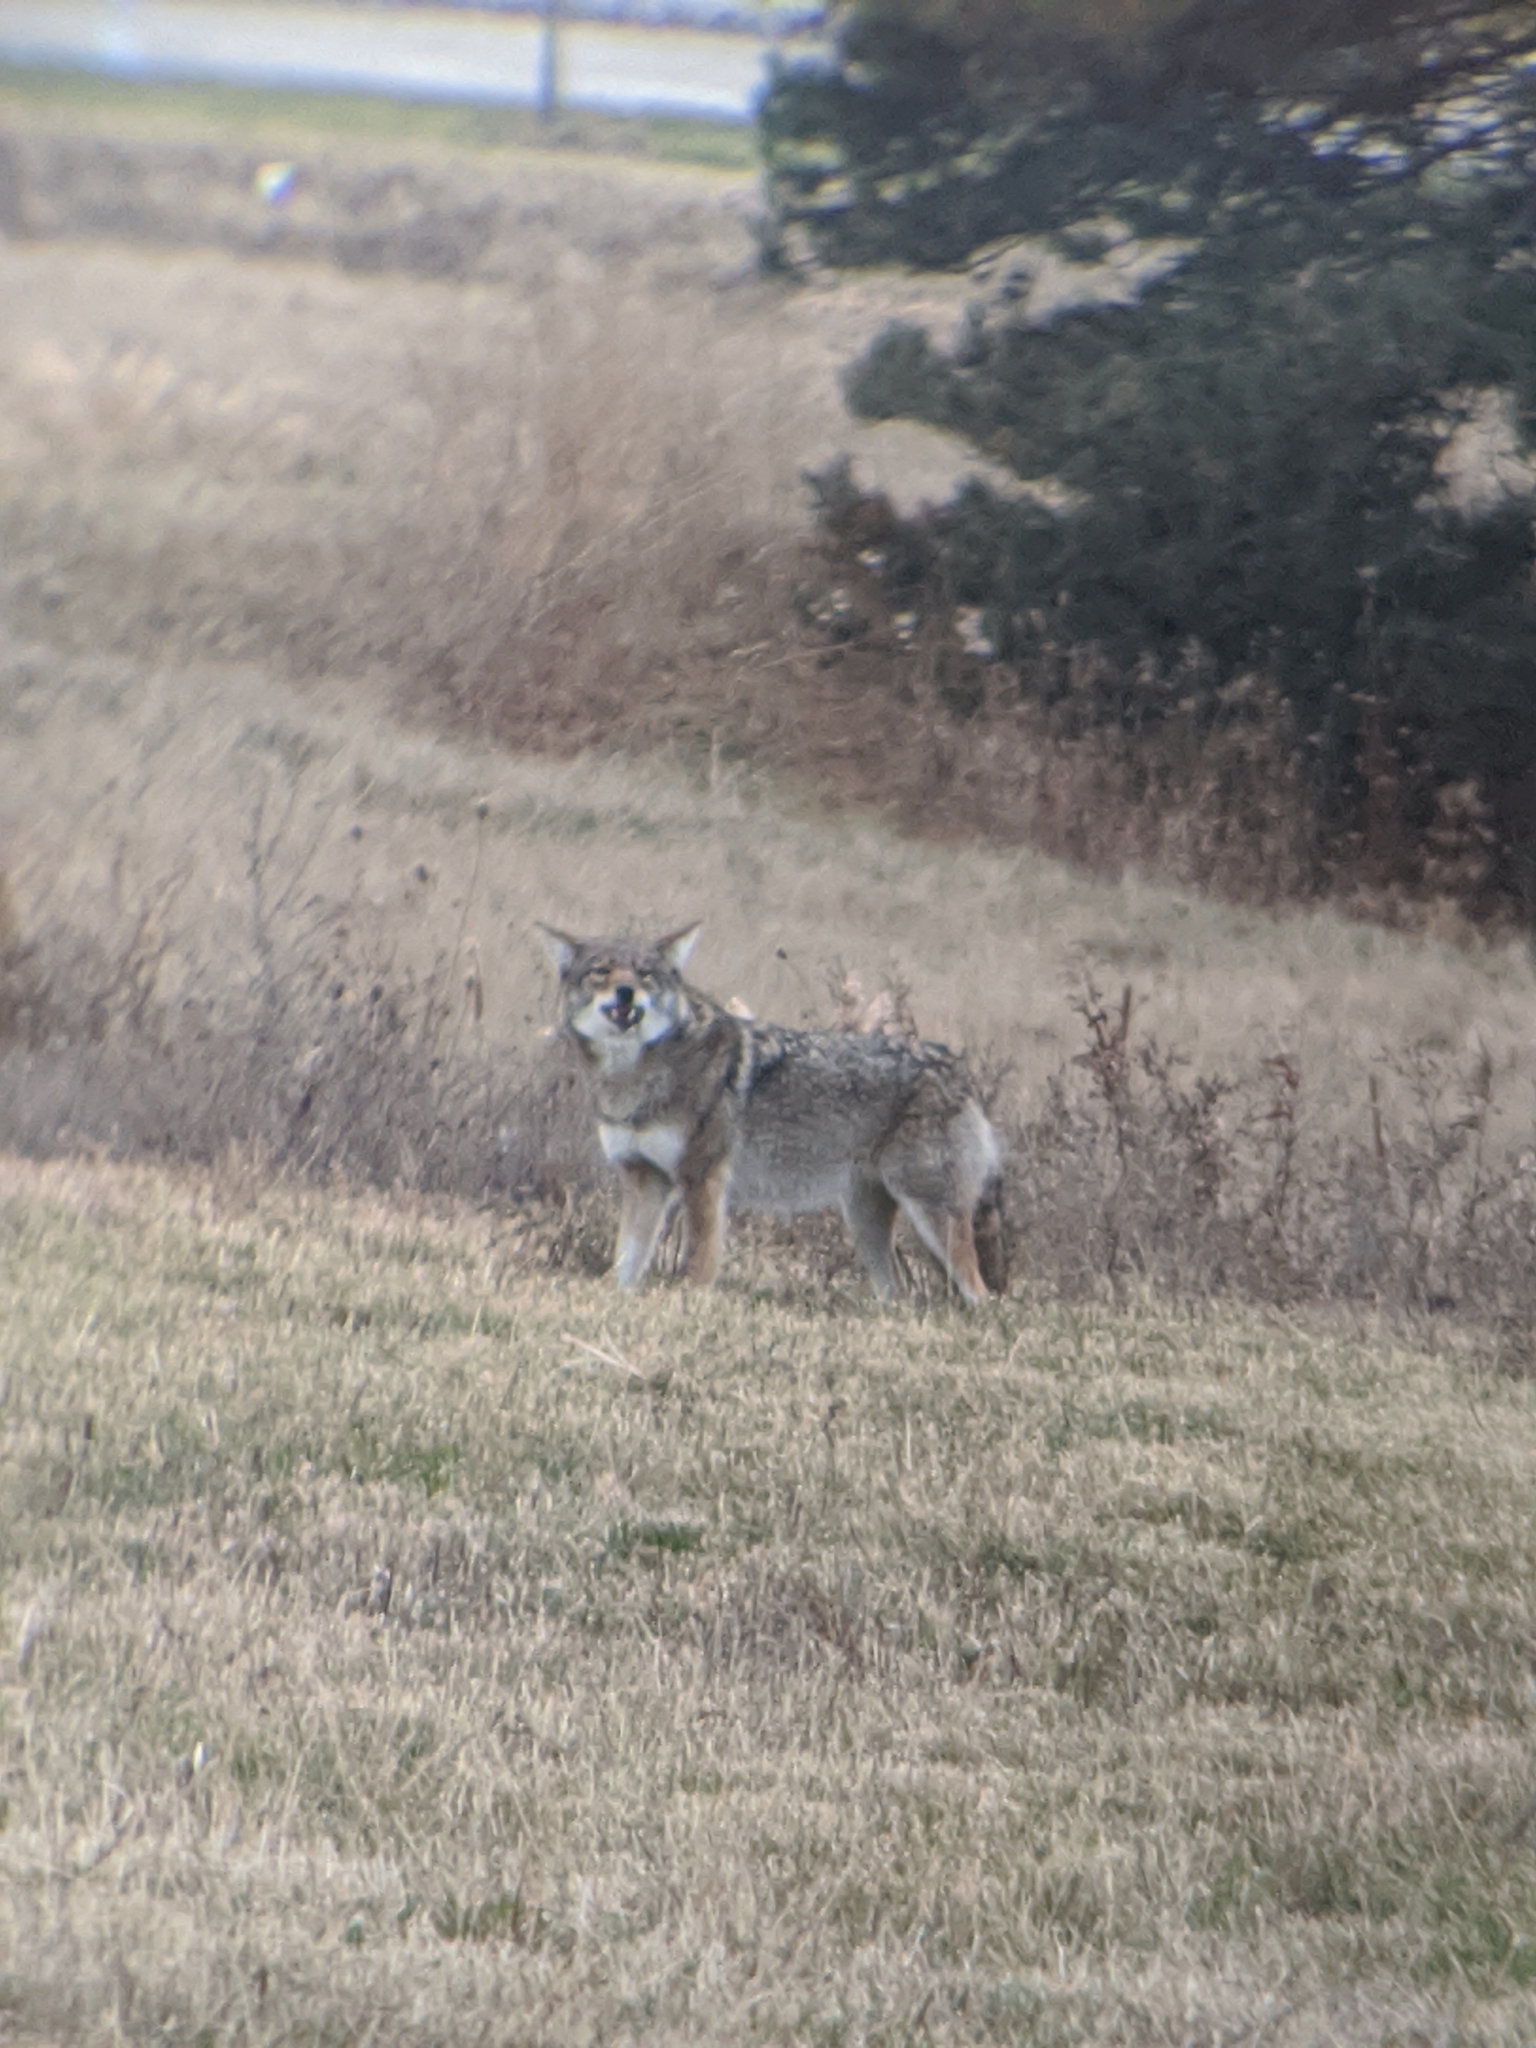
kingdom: Animalia
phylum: Chordata
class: Mammalia
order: Carnivora
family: Canidae
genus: Canis
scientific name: Canis latrans
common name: Coyote
